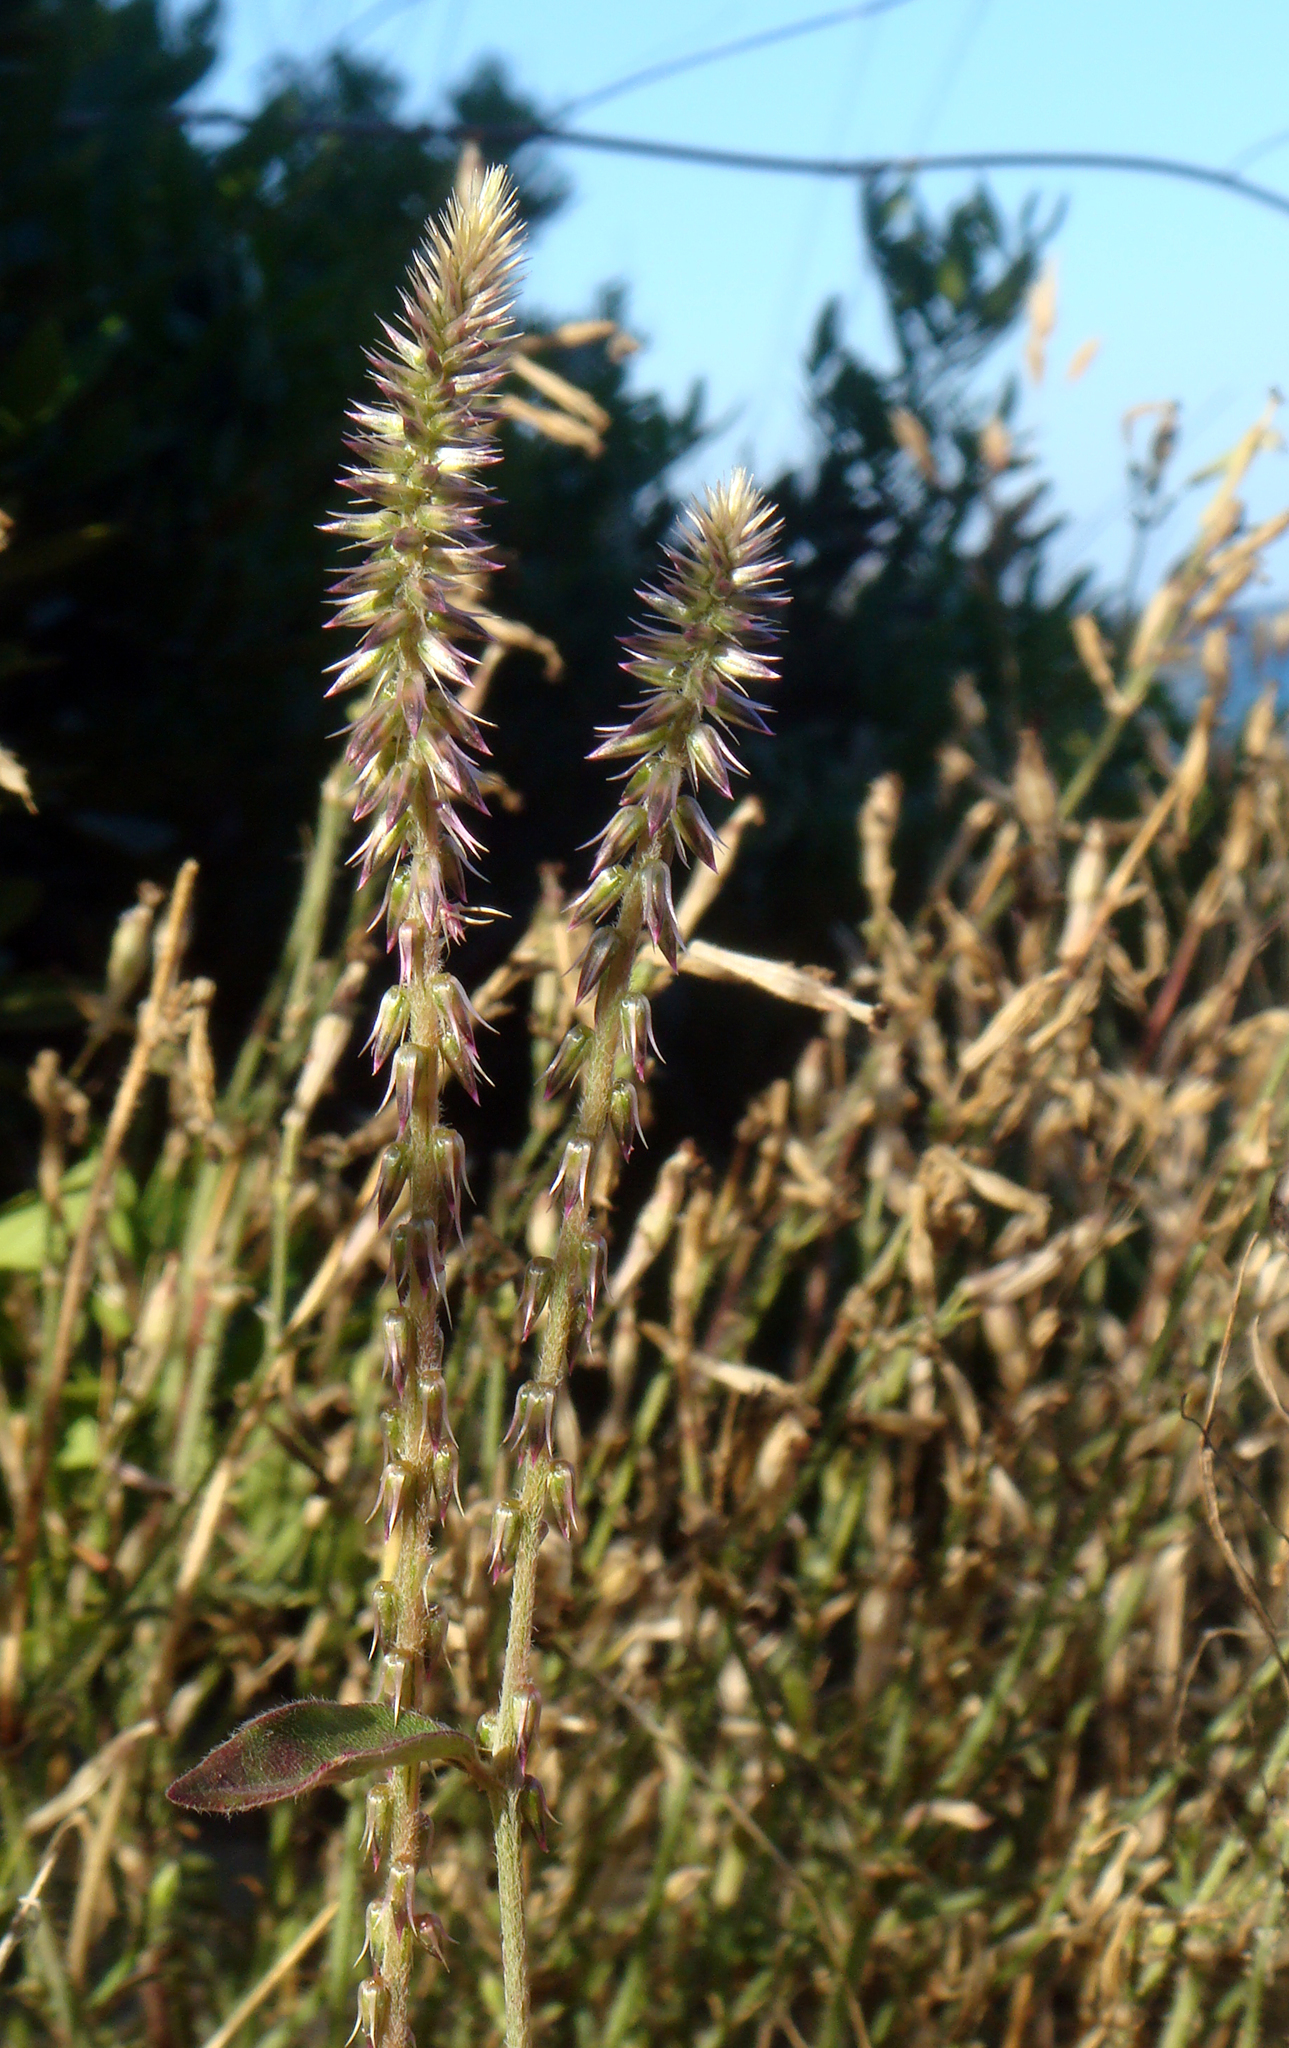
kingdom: Plantae
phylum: Tracheophyta
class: Magnoliopsida
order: Caryophyllales
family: Amaranthaceae
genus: Achyranthes
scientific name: Achyranthes aspera
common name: Devil's horsewhip
